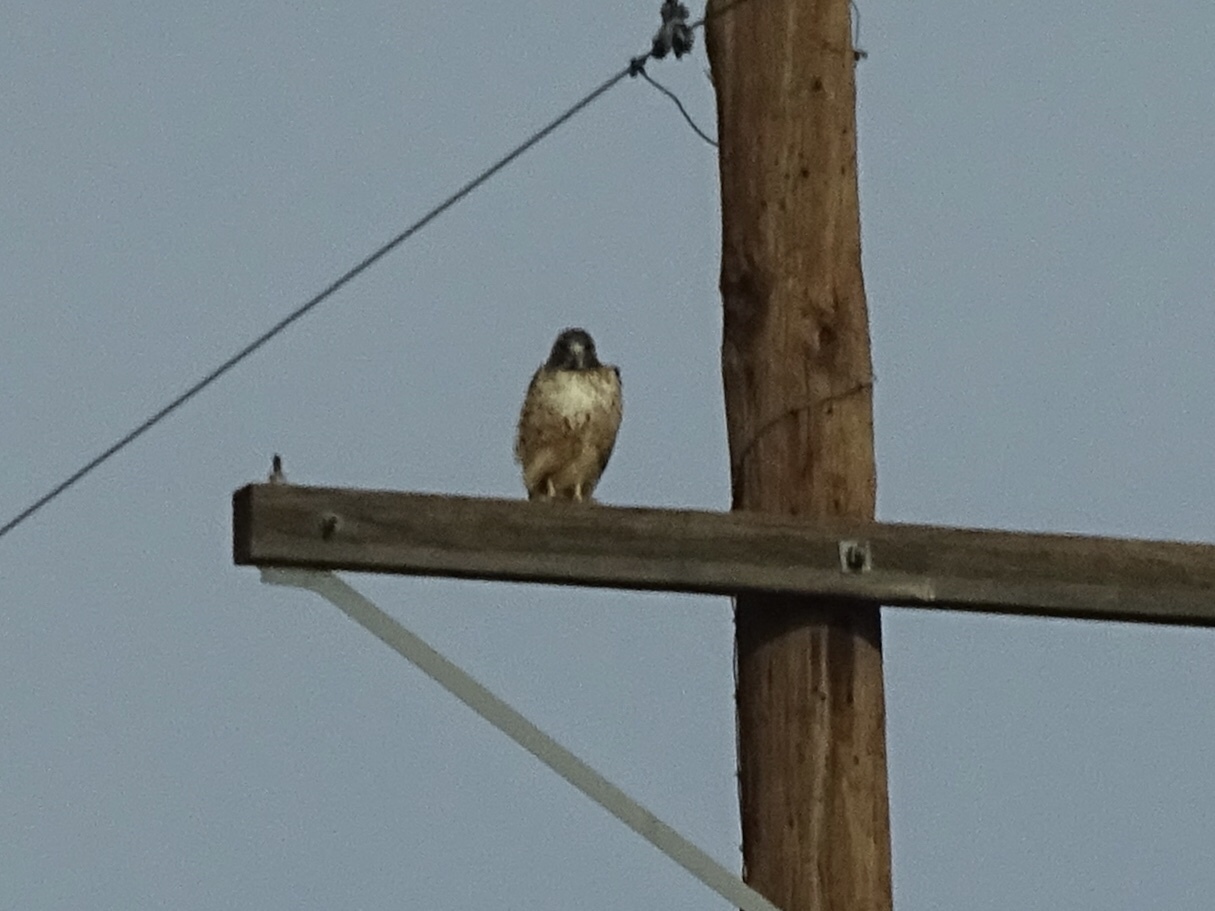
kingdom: Animalia
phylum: Chordata
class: Aves
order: Accipitriformes
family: Accipitridae
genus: Buteo
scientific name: Buteo jamaicensis
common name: Red-tailed hawk
